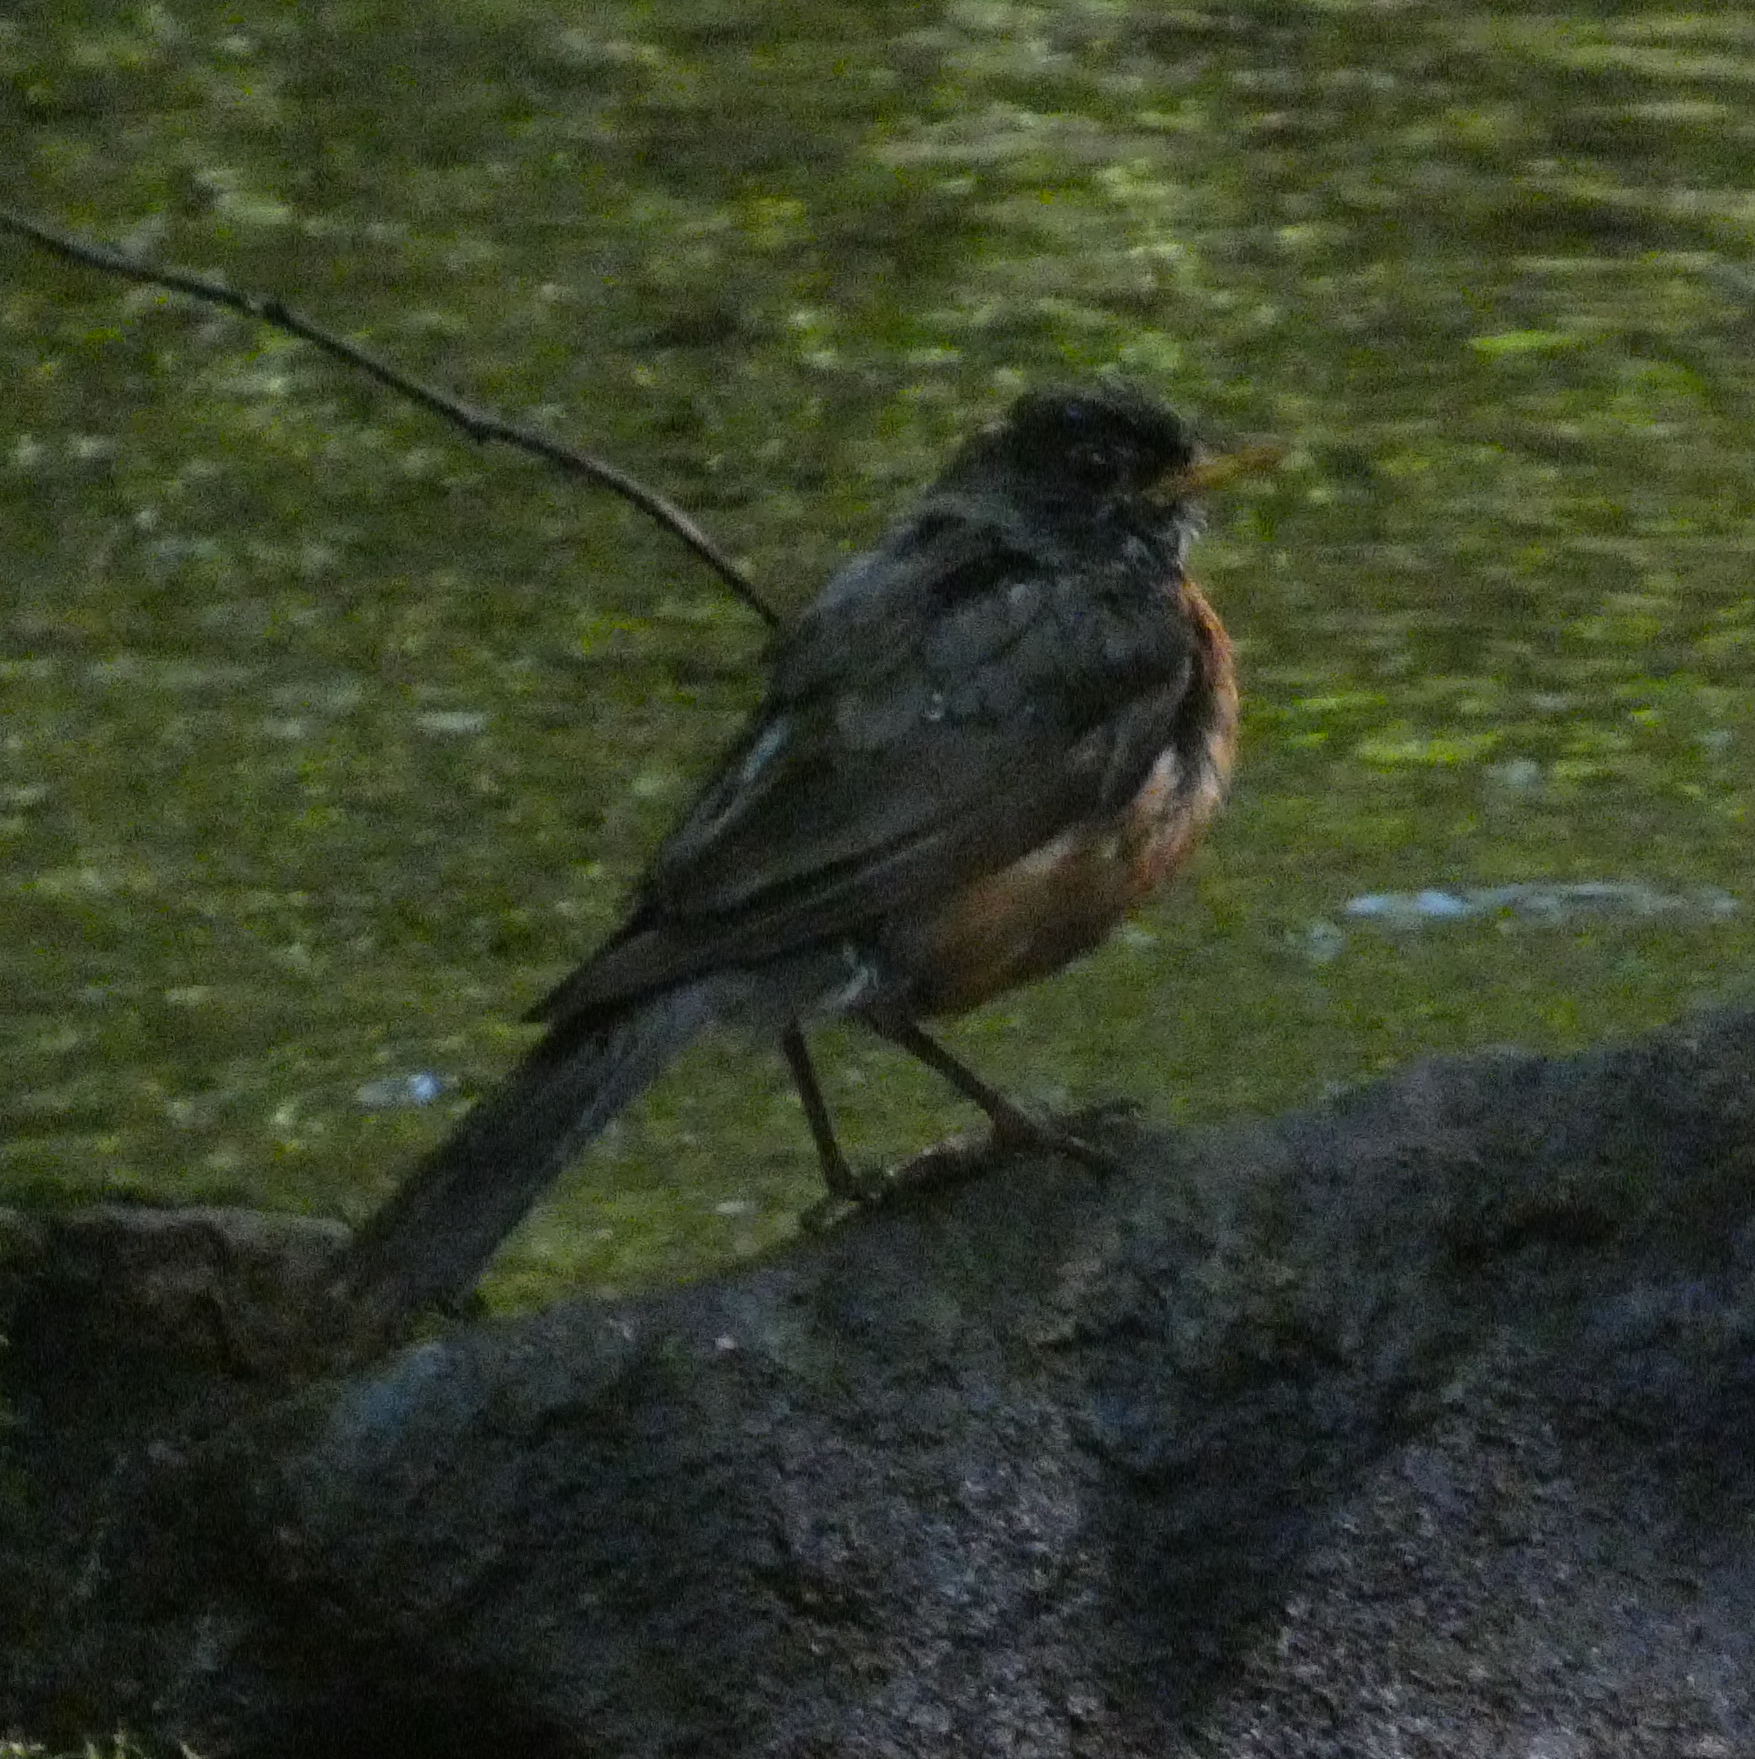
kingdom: Animalia
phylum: Chordata
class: Aves
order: Passeriformes
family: Turdidae
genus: Turdus
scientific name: Turdus migratorius
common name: American robin
